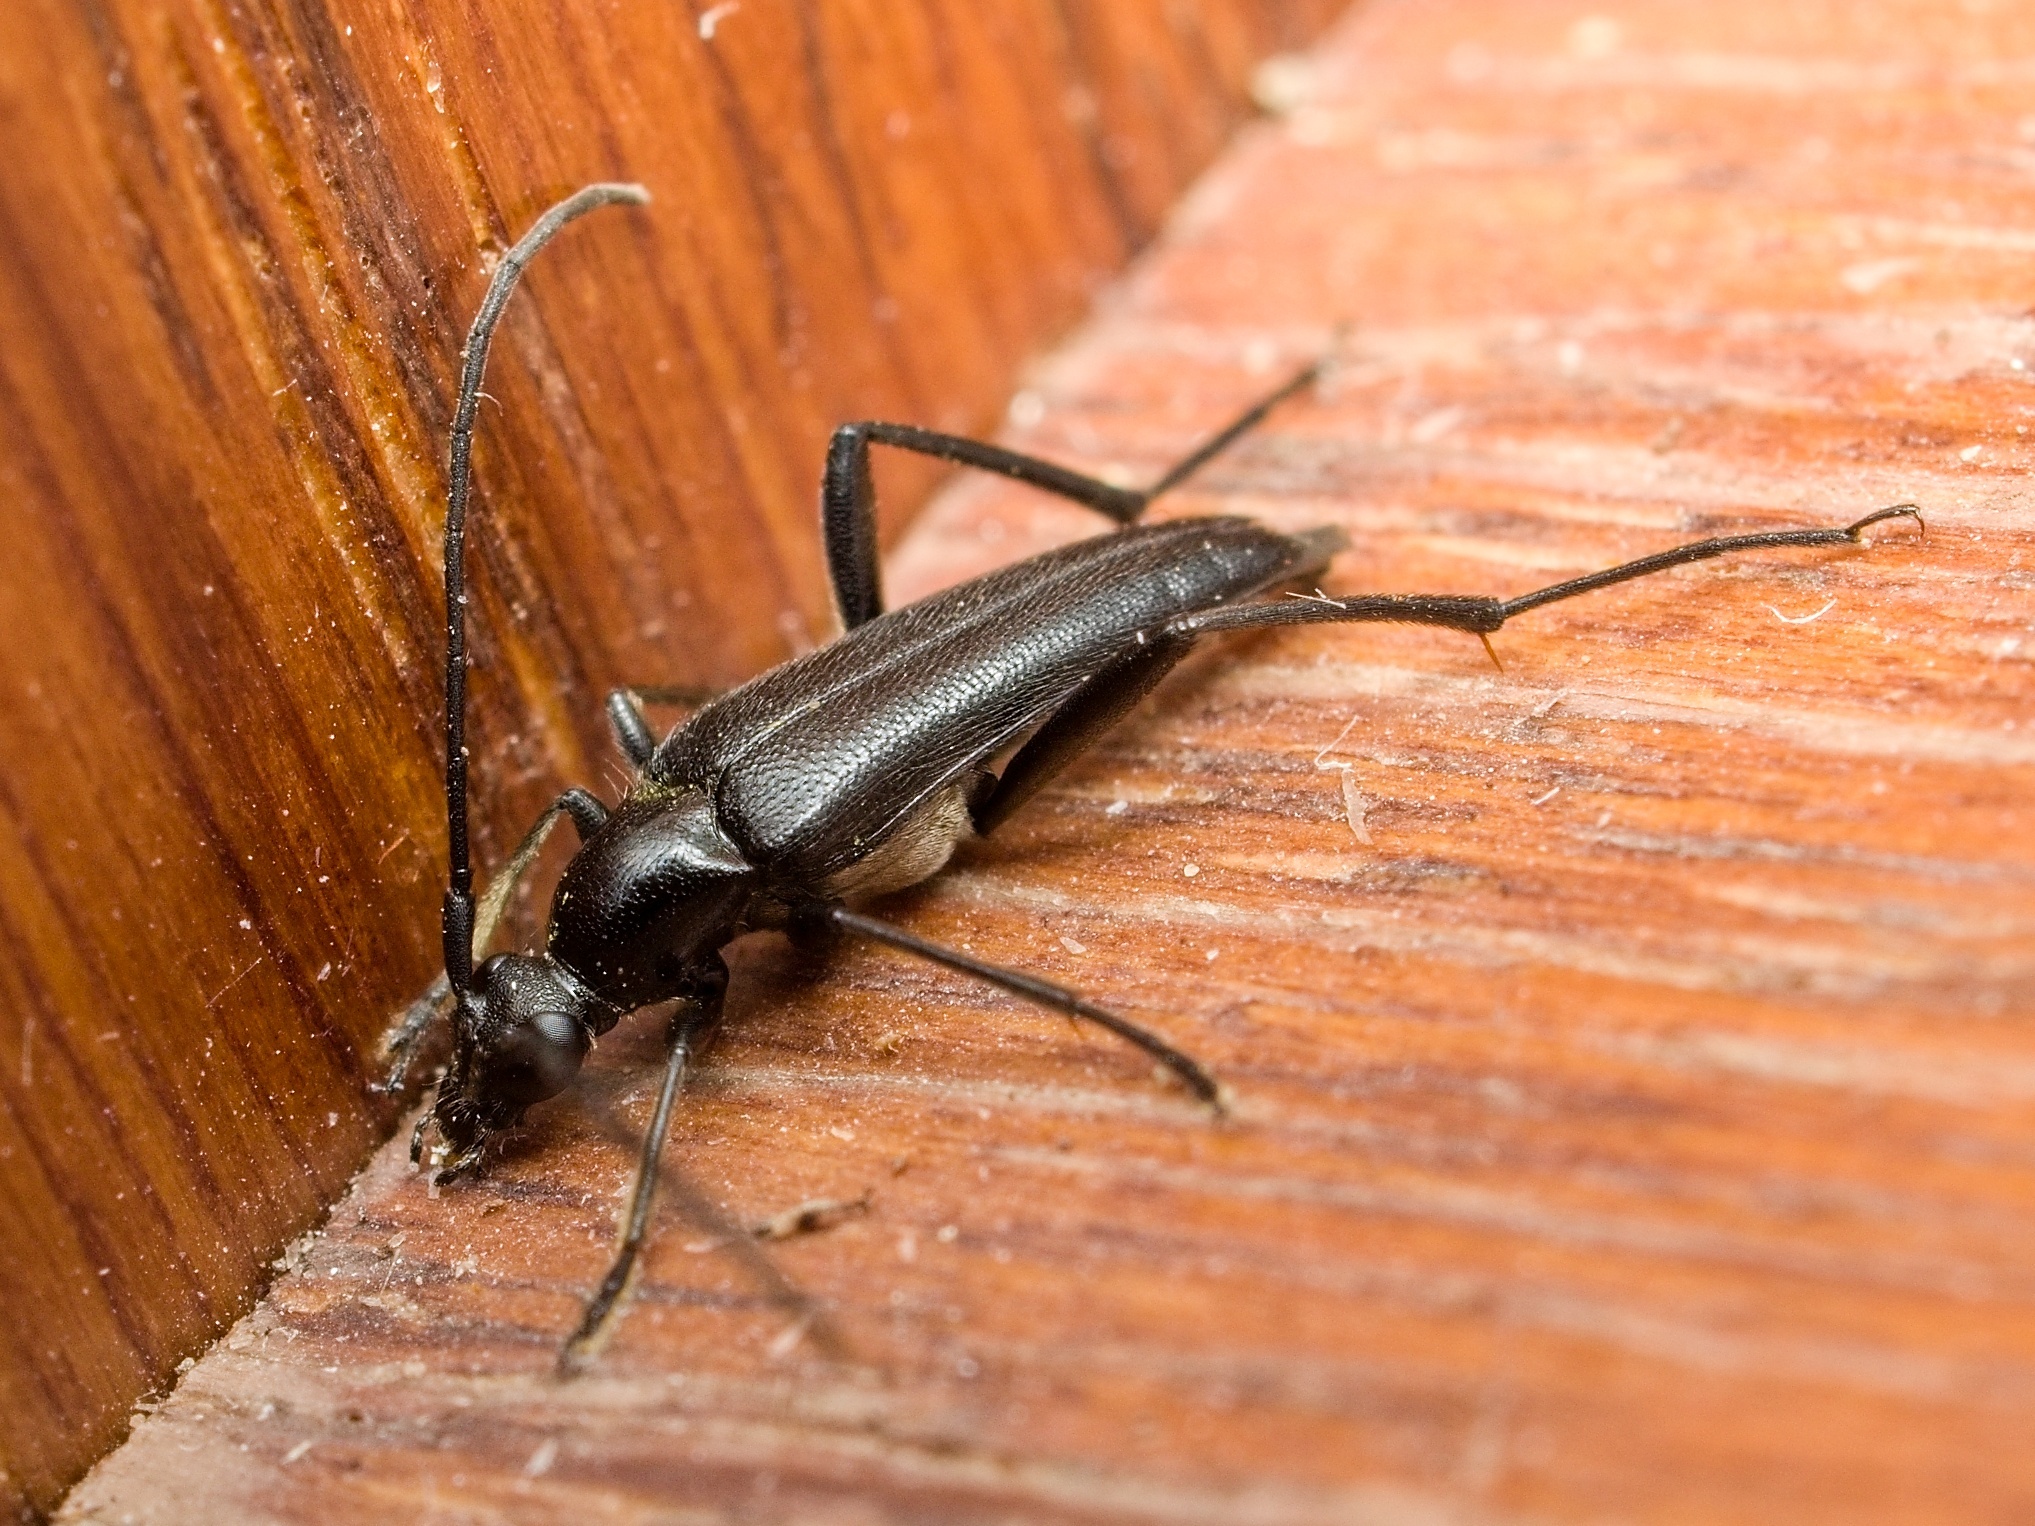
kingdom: Animalia
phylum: Arthropoda
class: Insecta
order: Coleoptera
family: Cerambycidae
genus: Stenurella
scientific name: Stenurella nigra
